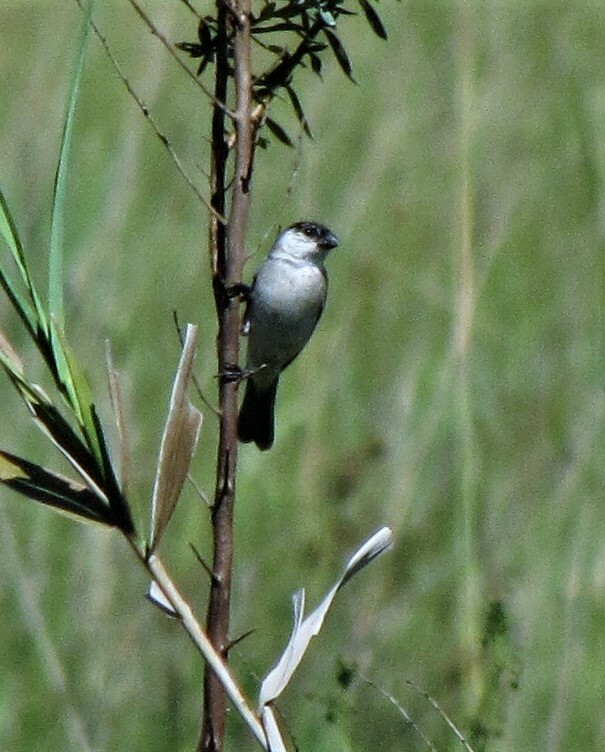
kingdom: Animalia
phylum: Chordata
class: Aves
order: Passeriformes
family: Thraupidae
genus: Sporophila
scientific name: Sporophila pileata
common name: Pearly-bellied seedeater
